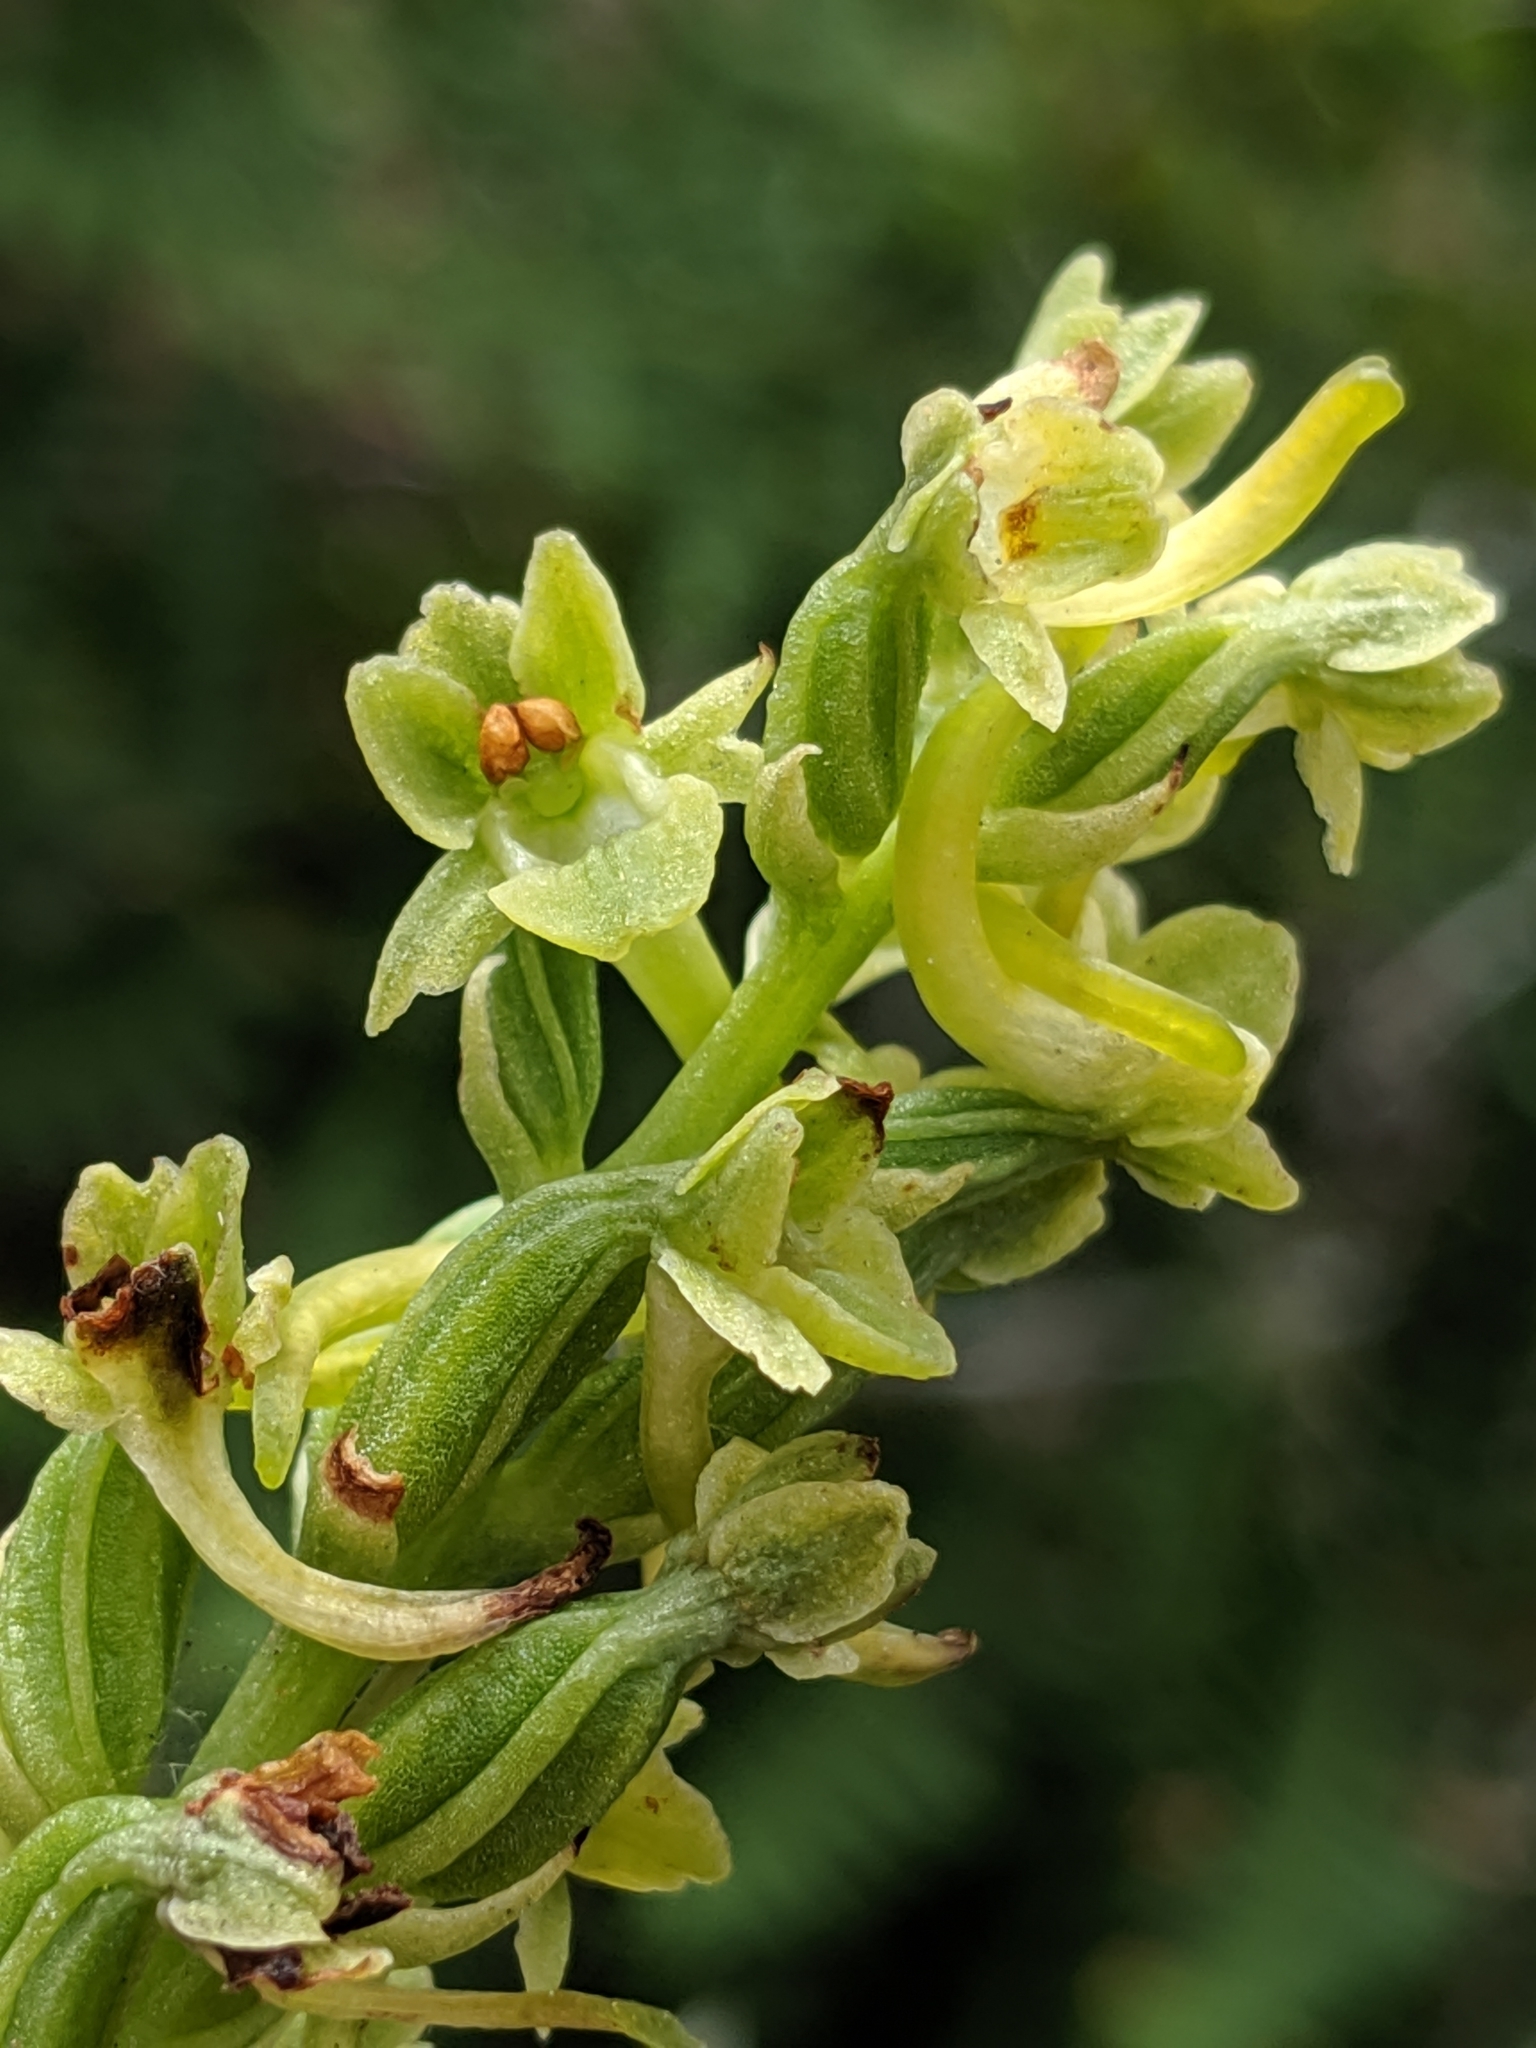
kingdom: Plantae
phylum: Tracheophyta
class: Liliopsida
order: Asparagales
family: Orchidaceae
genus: Platanthera
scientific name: Platanthera michaelii
